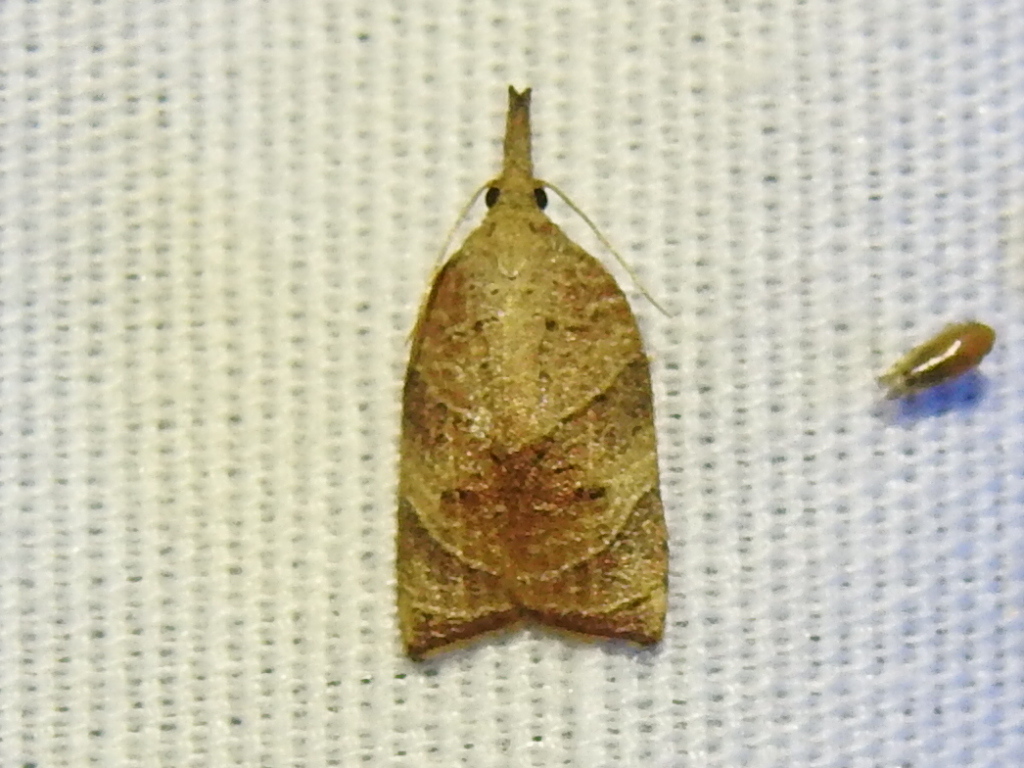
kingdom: Animalia
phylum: Arthropoda
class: Insecta
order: Lepidoptera
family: Tortricidae
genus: Platynota
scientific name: Platynota rostrana
